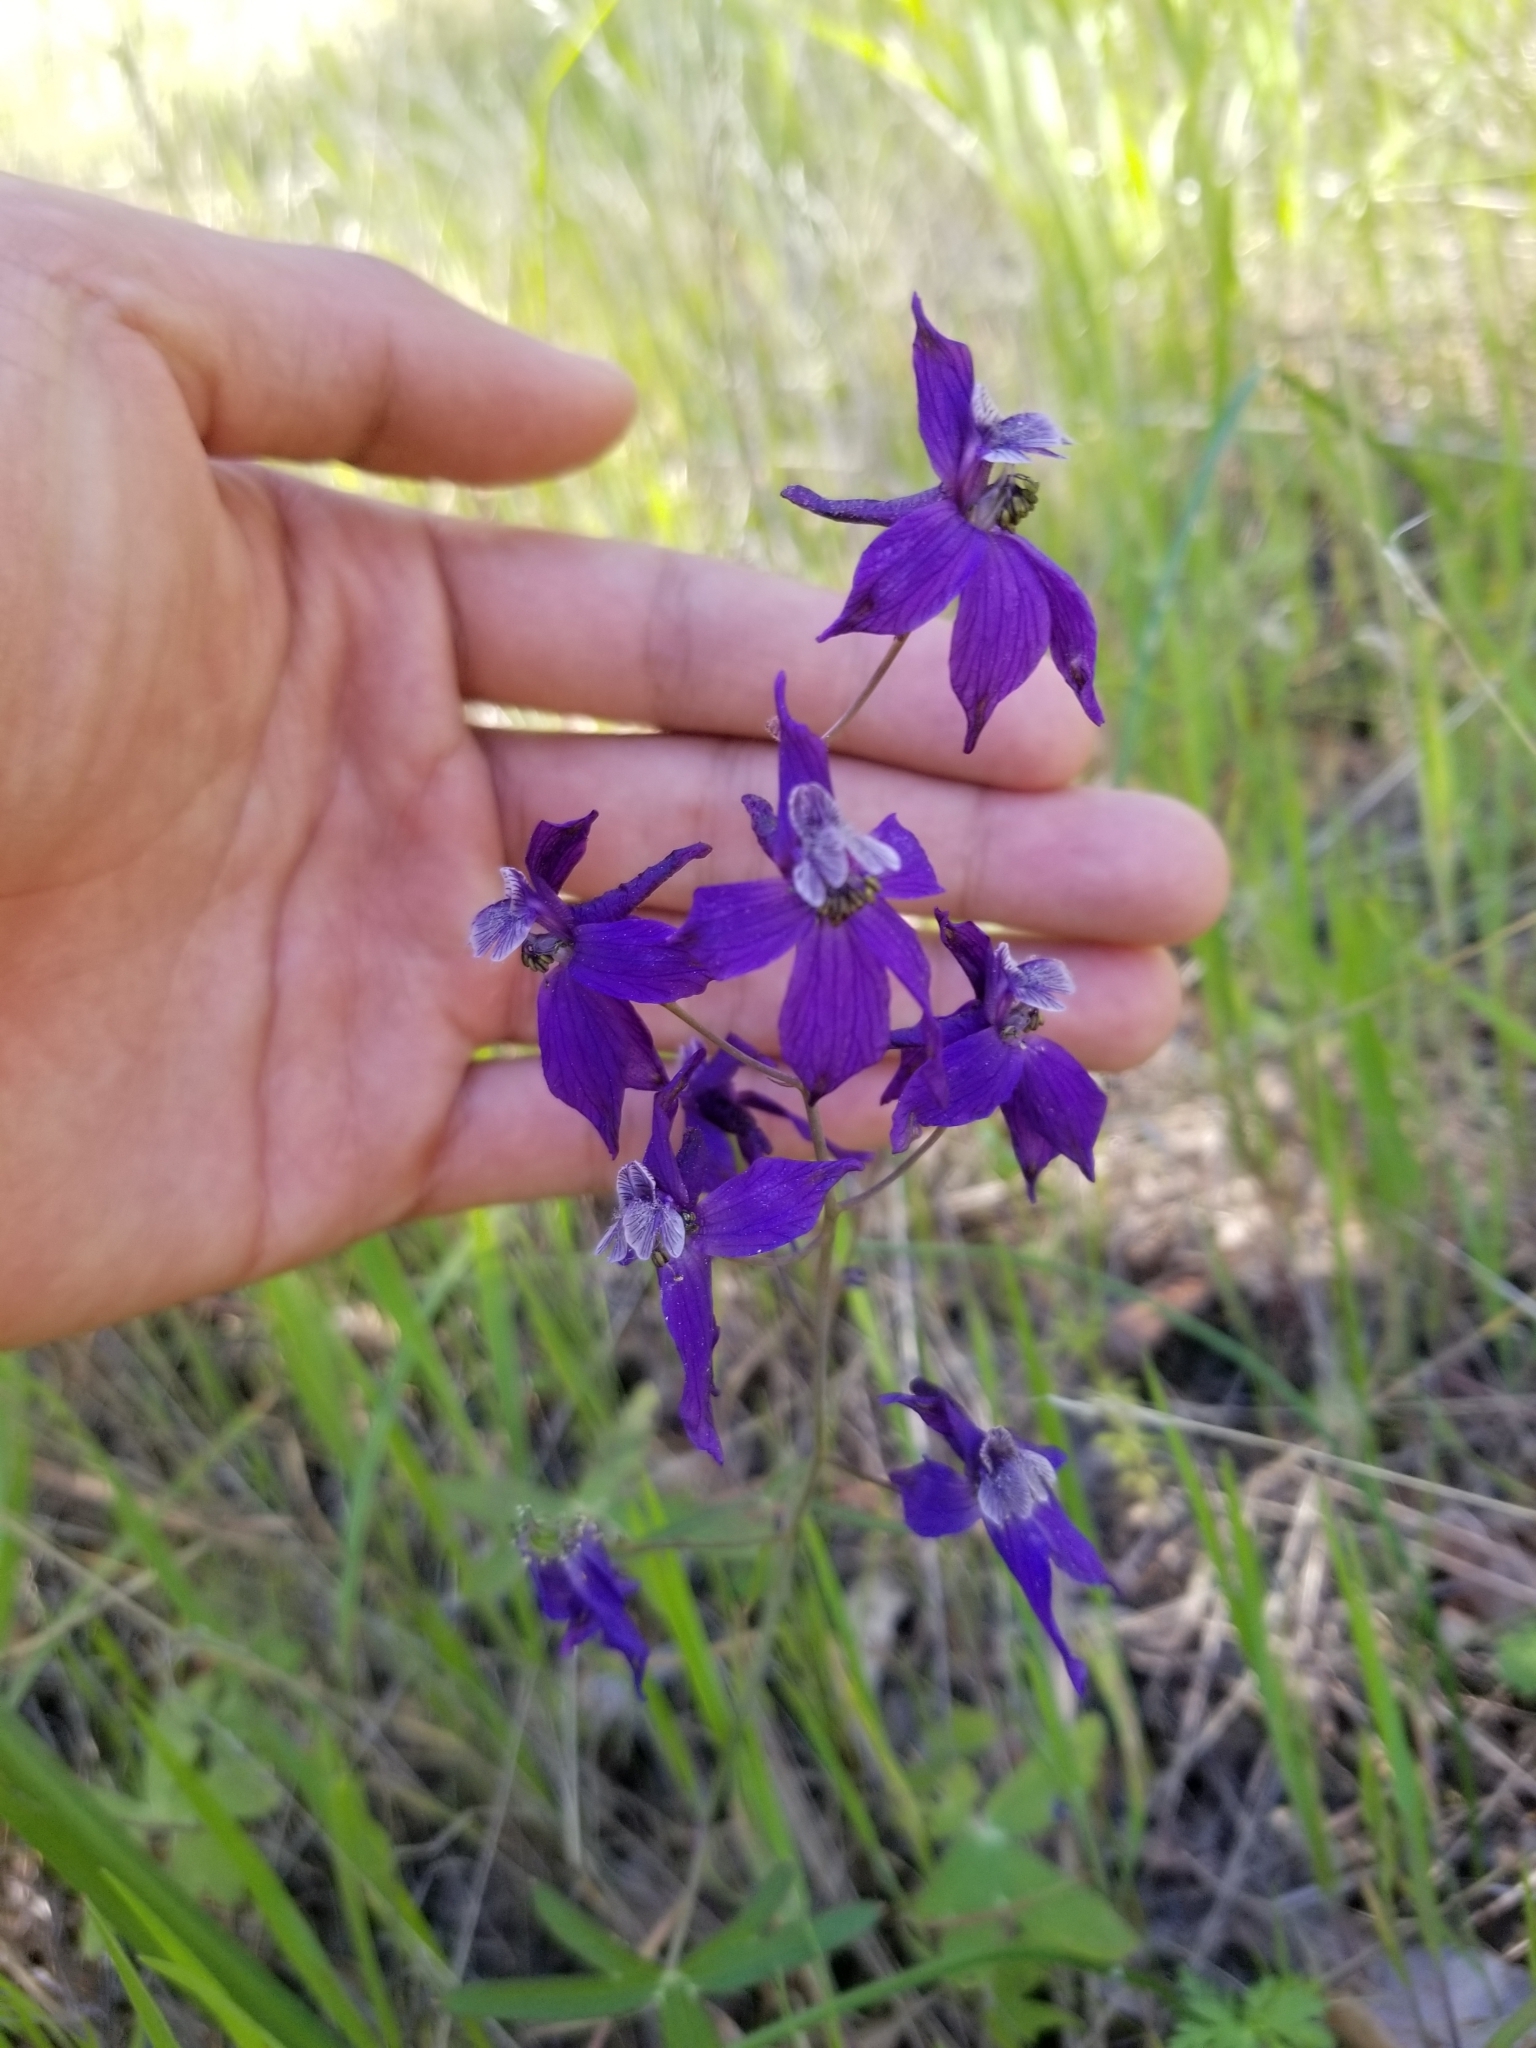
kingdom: Plantae
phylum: Tracheophyta
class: Magnoliopsida
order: Ranunculales
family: Ranunculaceae
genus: Delphinium
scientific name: Delphinium patens
